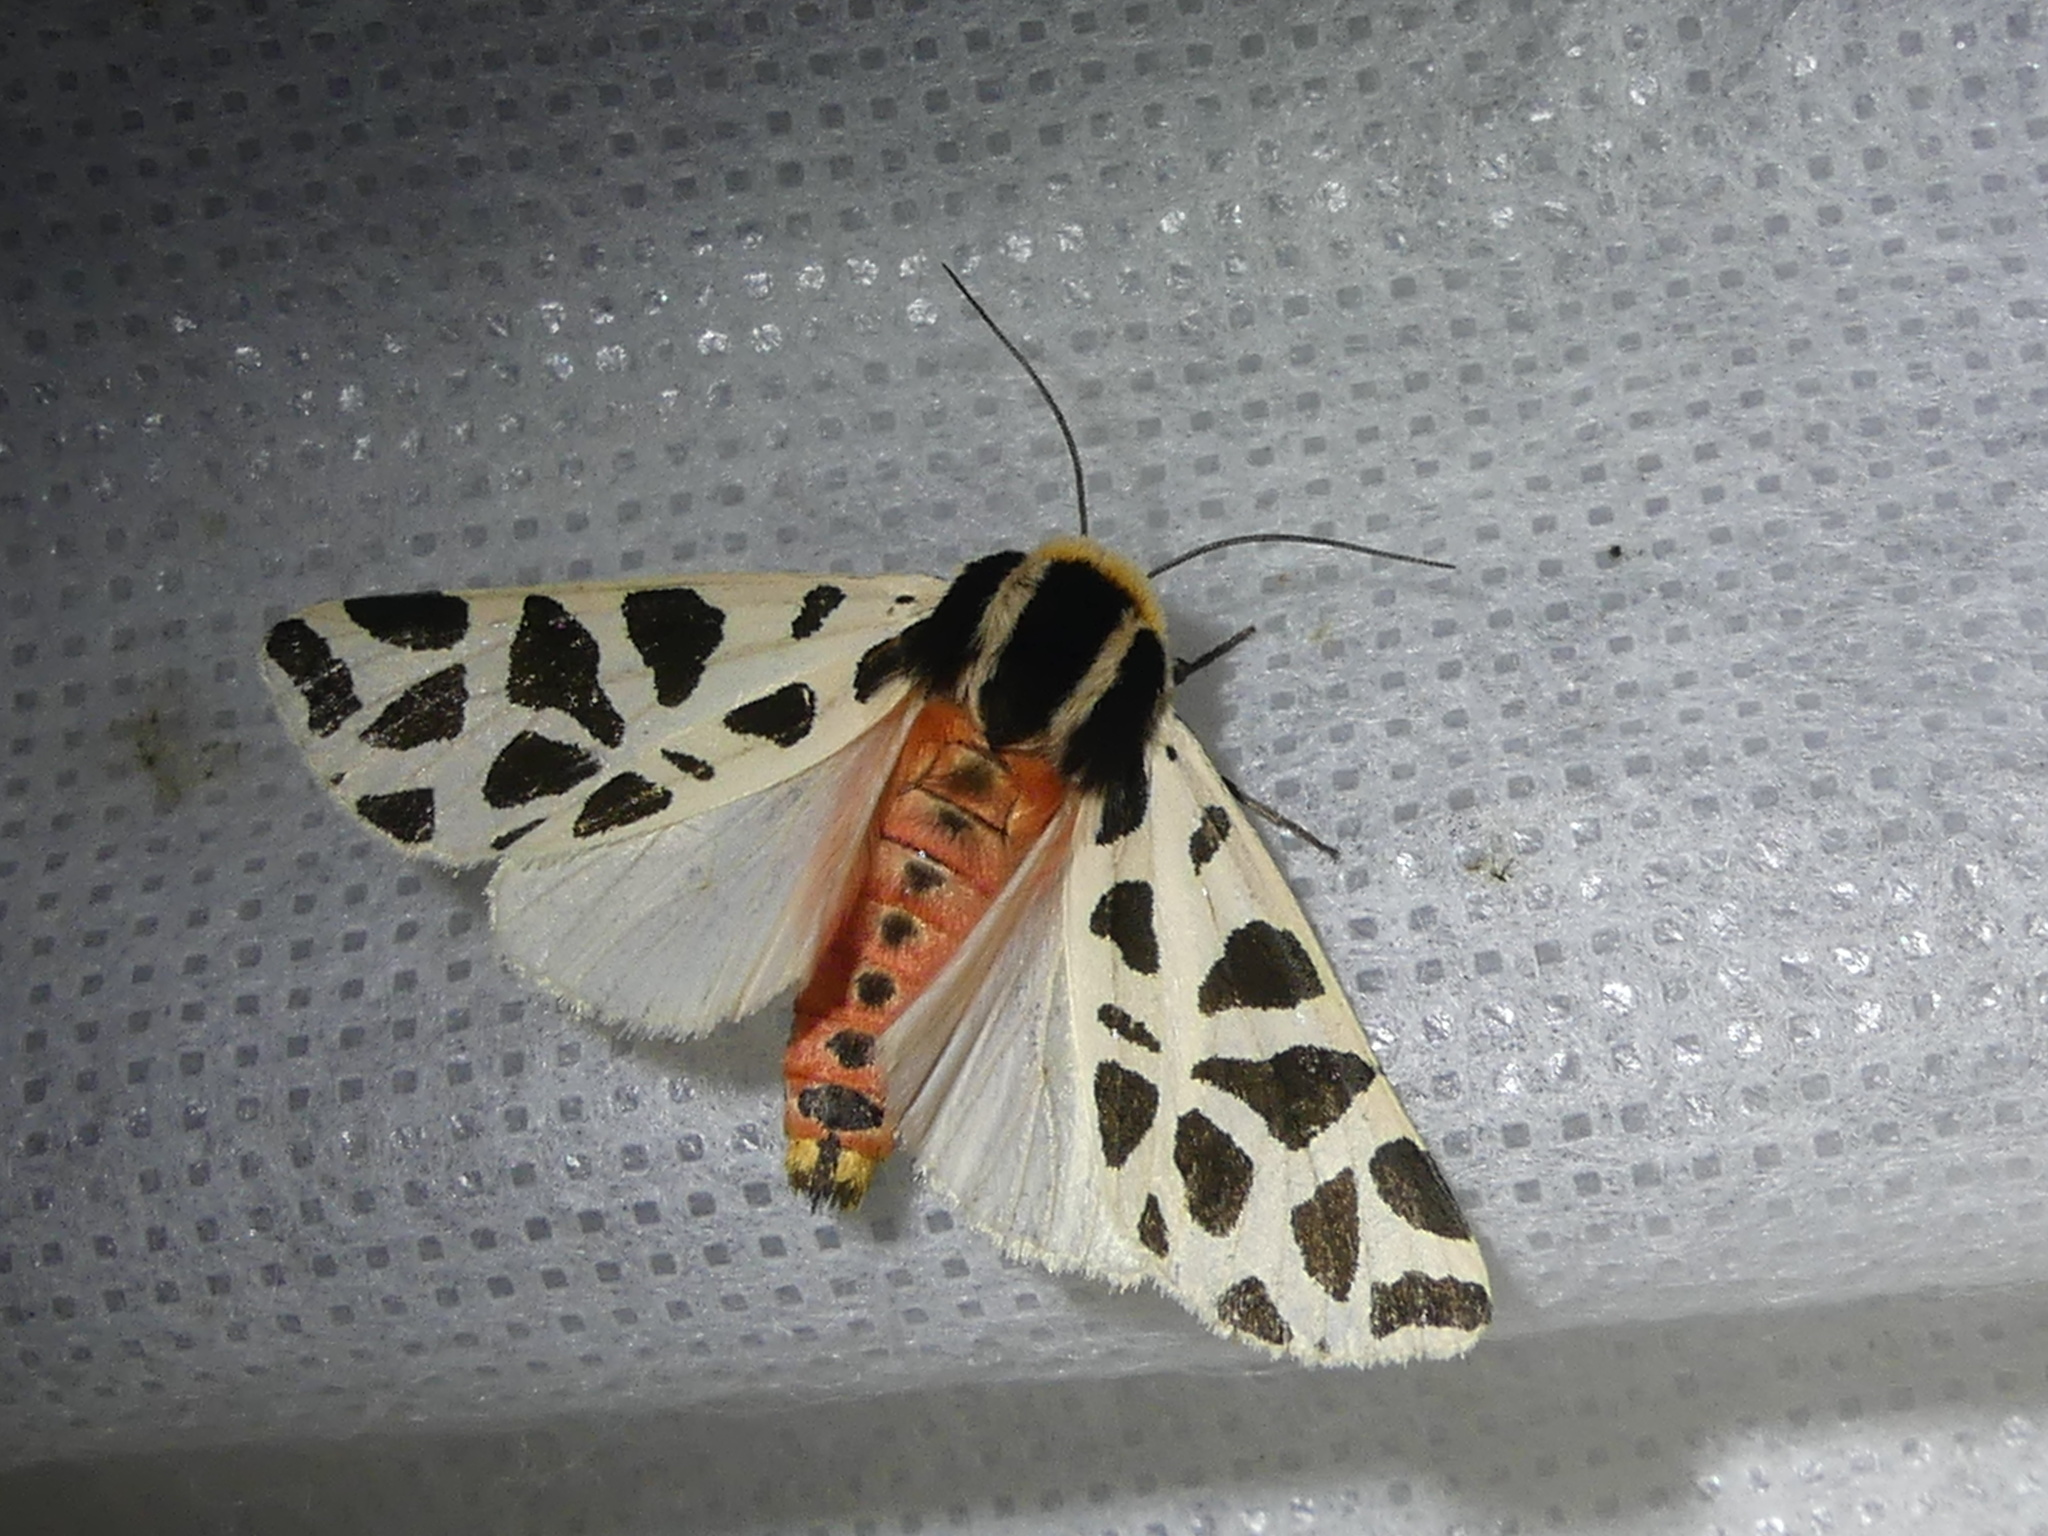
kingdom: Animalia
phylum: Arthropoda
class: Insecta
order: Lepidoptera
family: Erebidae
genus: Cymbalophora
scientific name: Cymbalophora pudica
